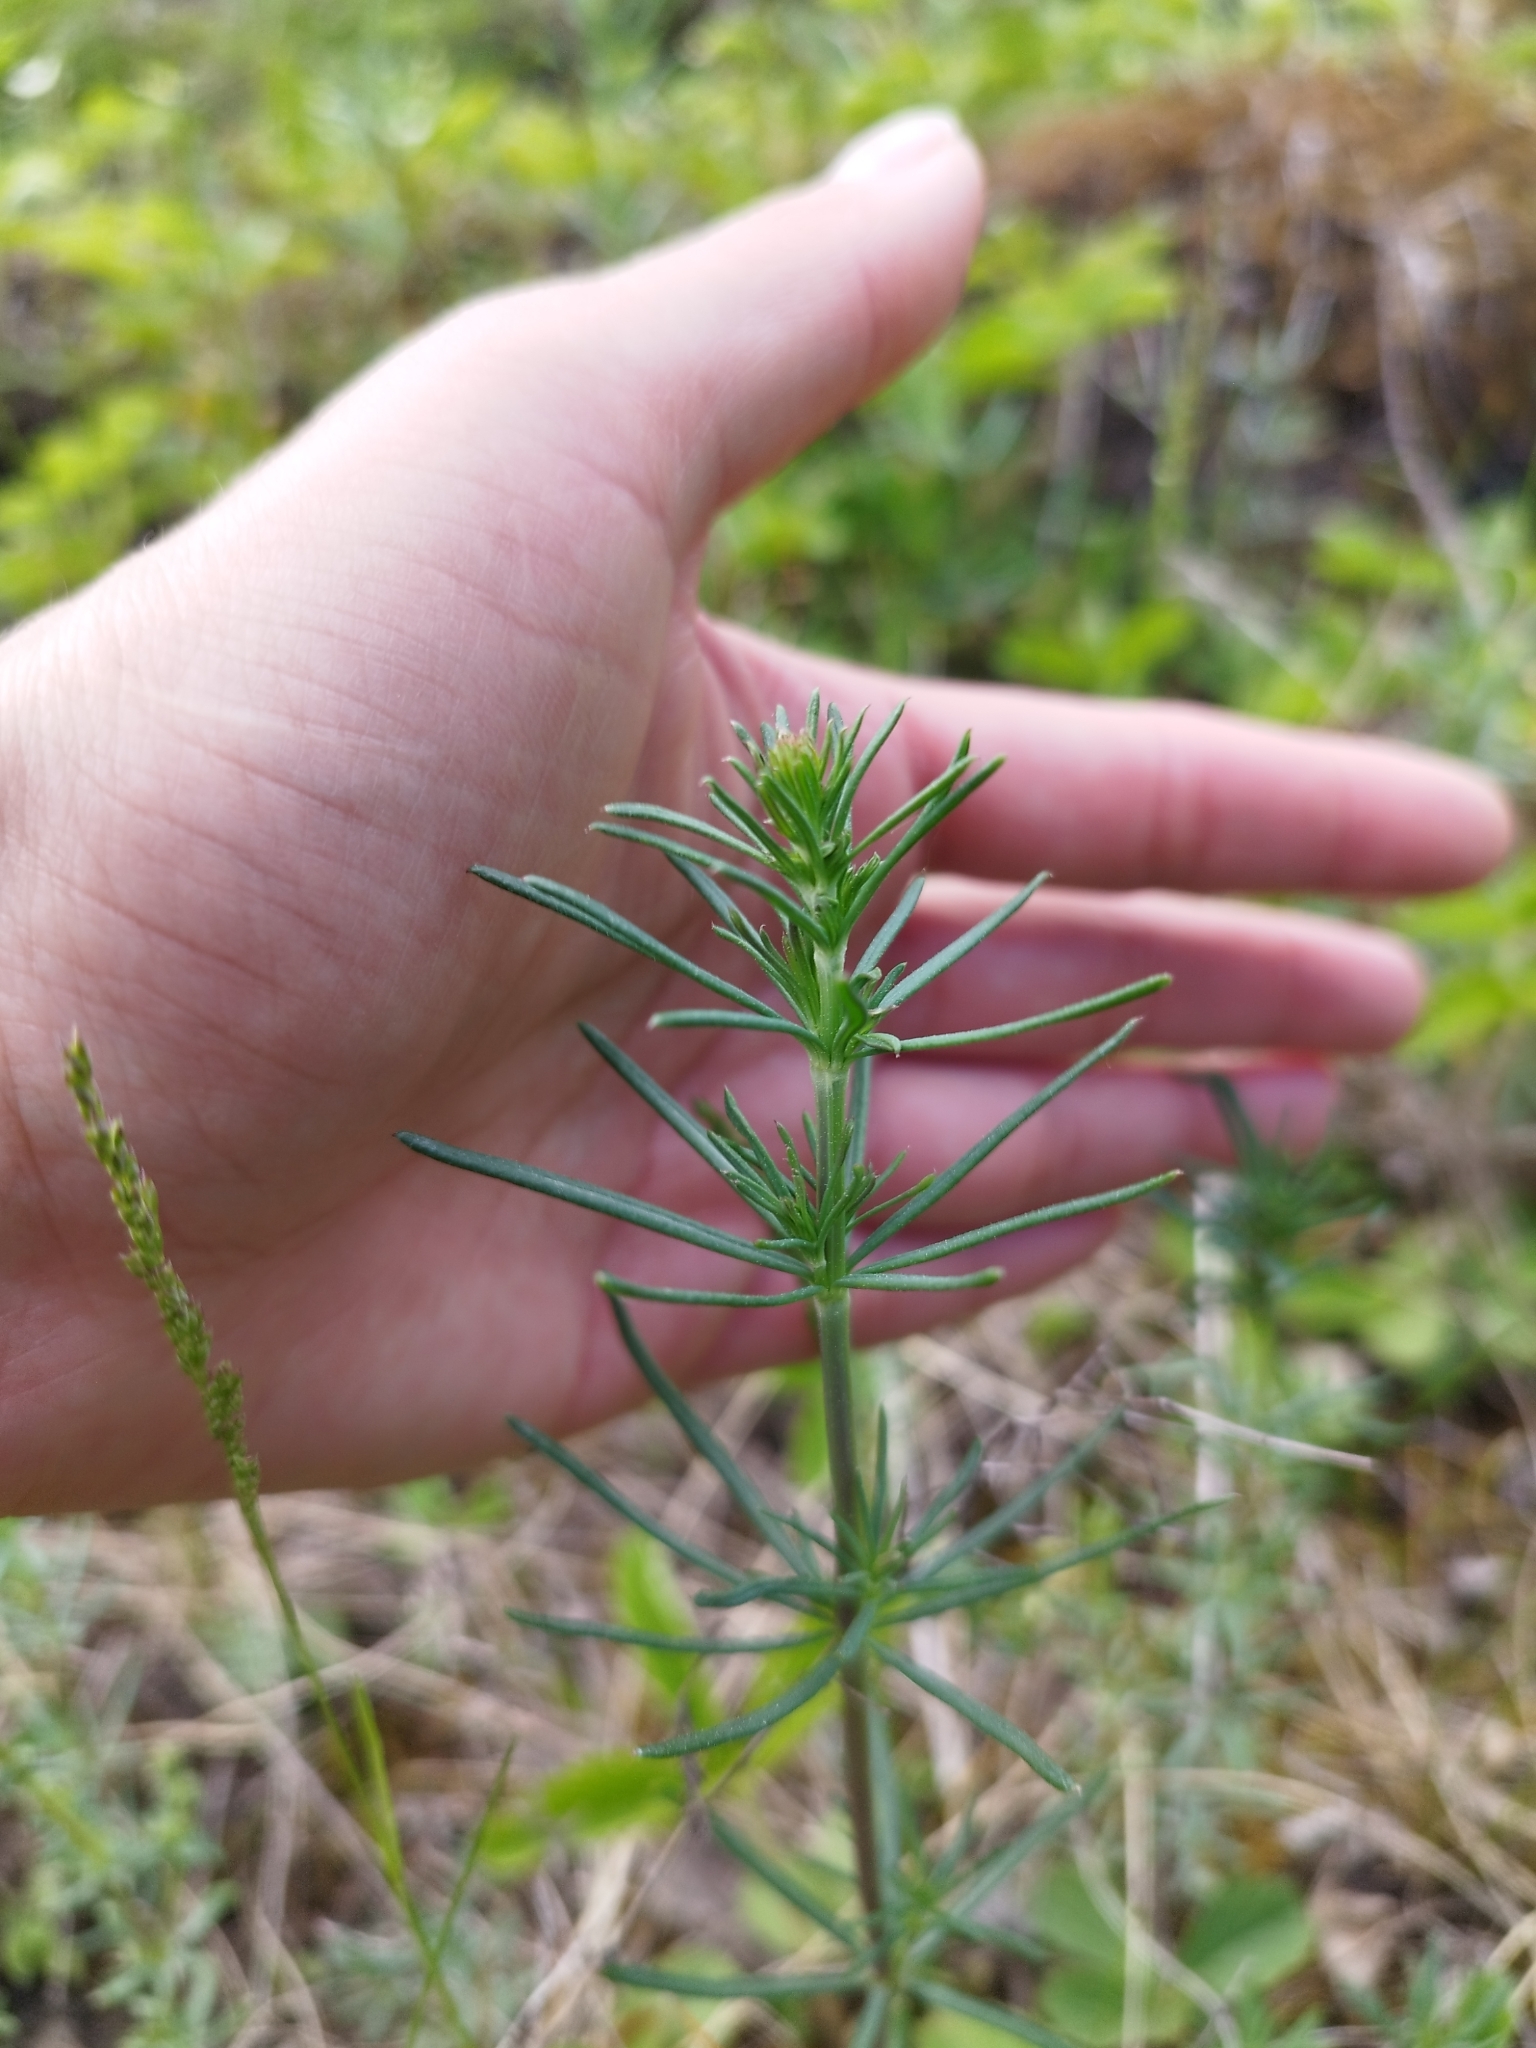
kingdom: Plantae
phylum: Tracheophyta
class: Magnoliopsida
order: Gentianales
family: Rubiaceae
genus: Galium
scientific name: Galium verum
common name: Lady's bedstraw
